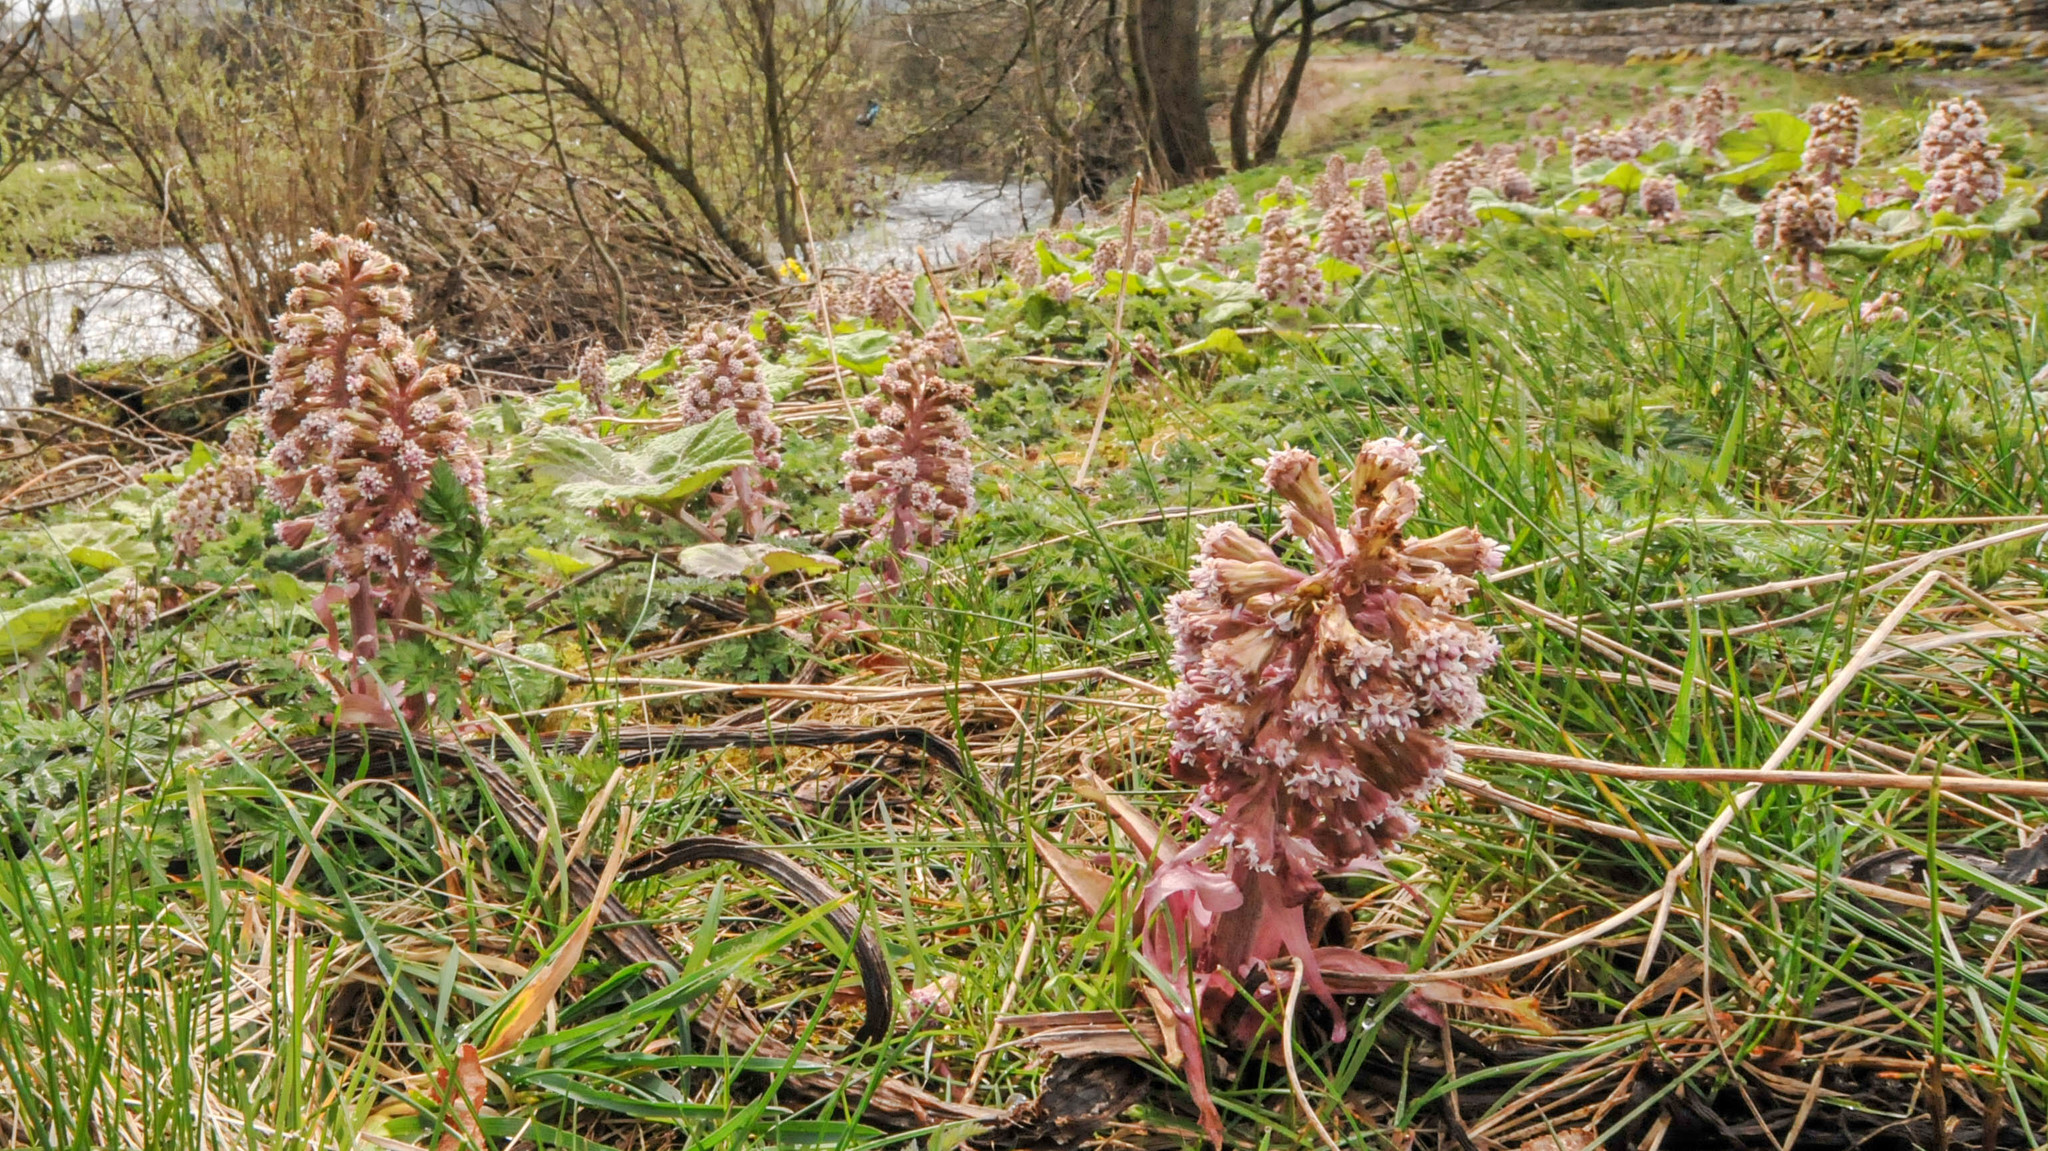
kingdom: Plantae
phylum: Tracheophyta
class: Magnoliopsida
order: Asterales
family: Asteraceae
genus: Petasites
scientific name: Petasites hybridus
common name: Butterbur
